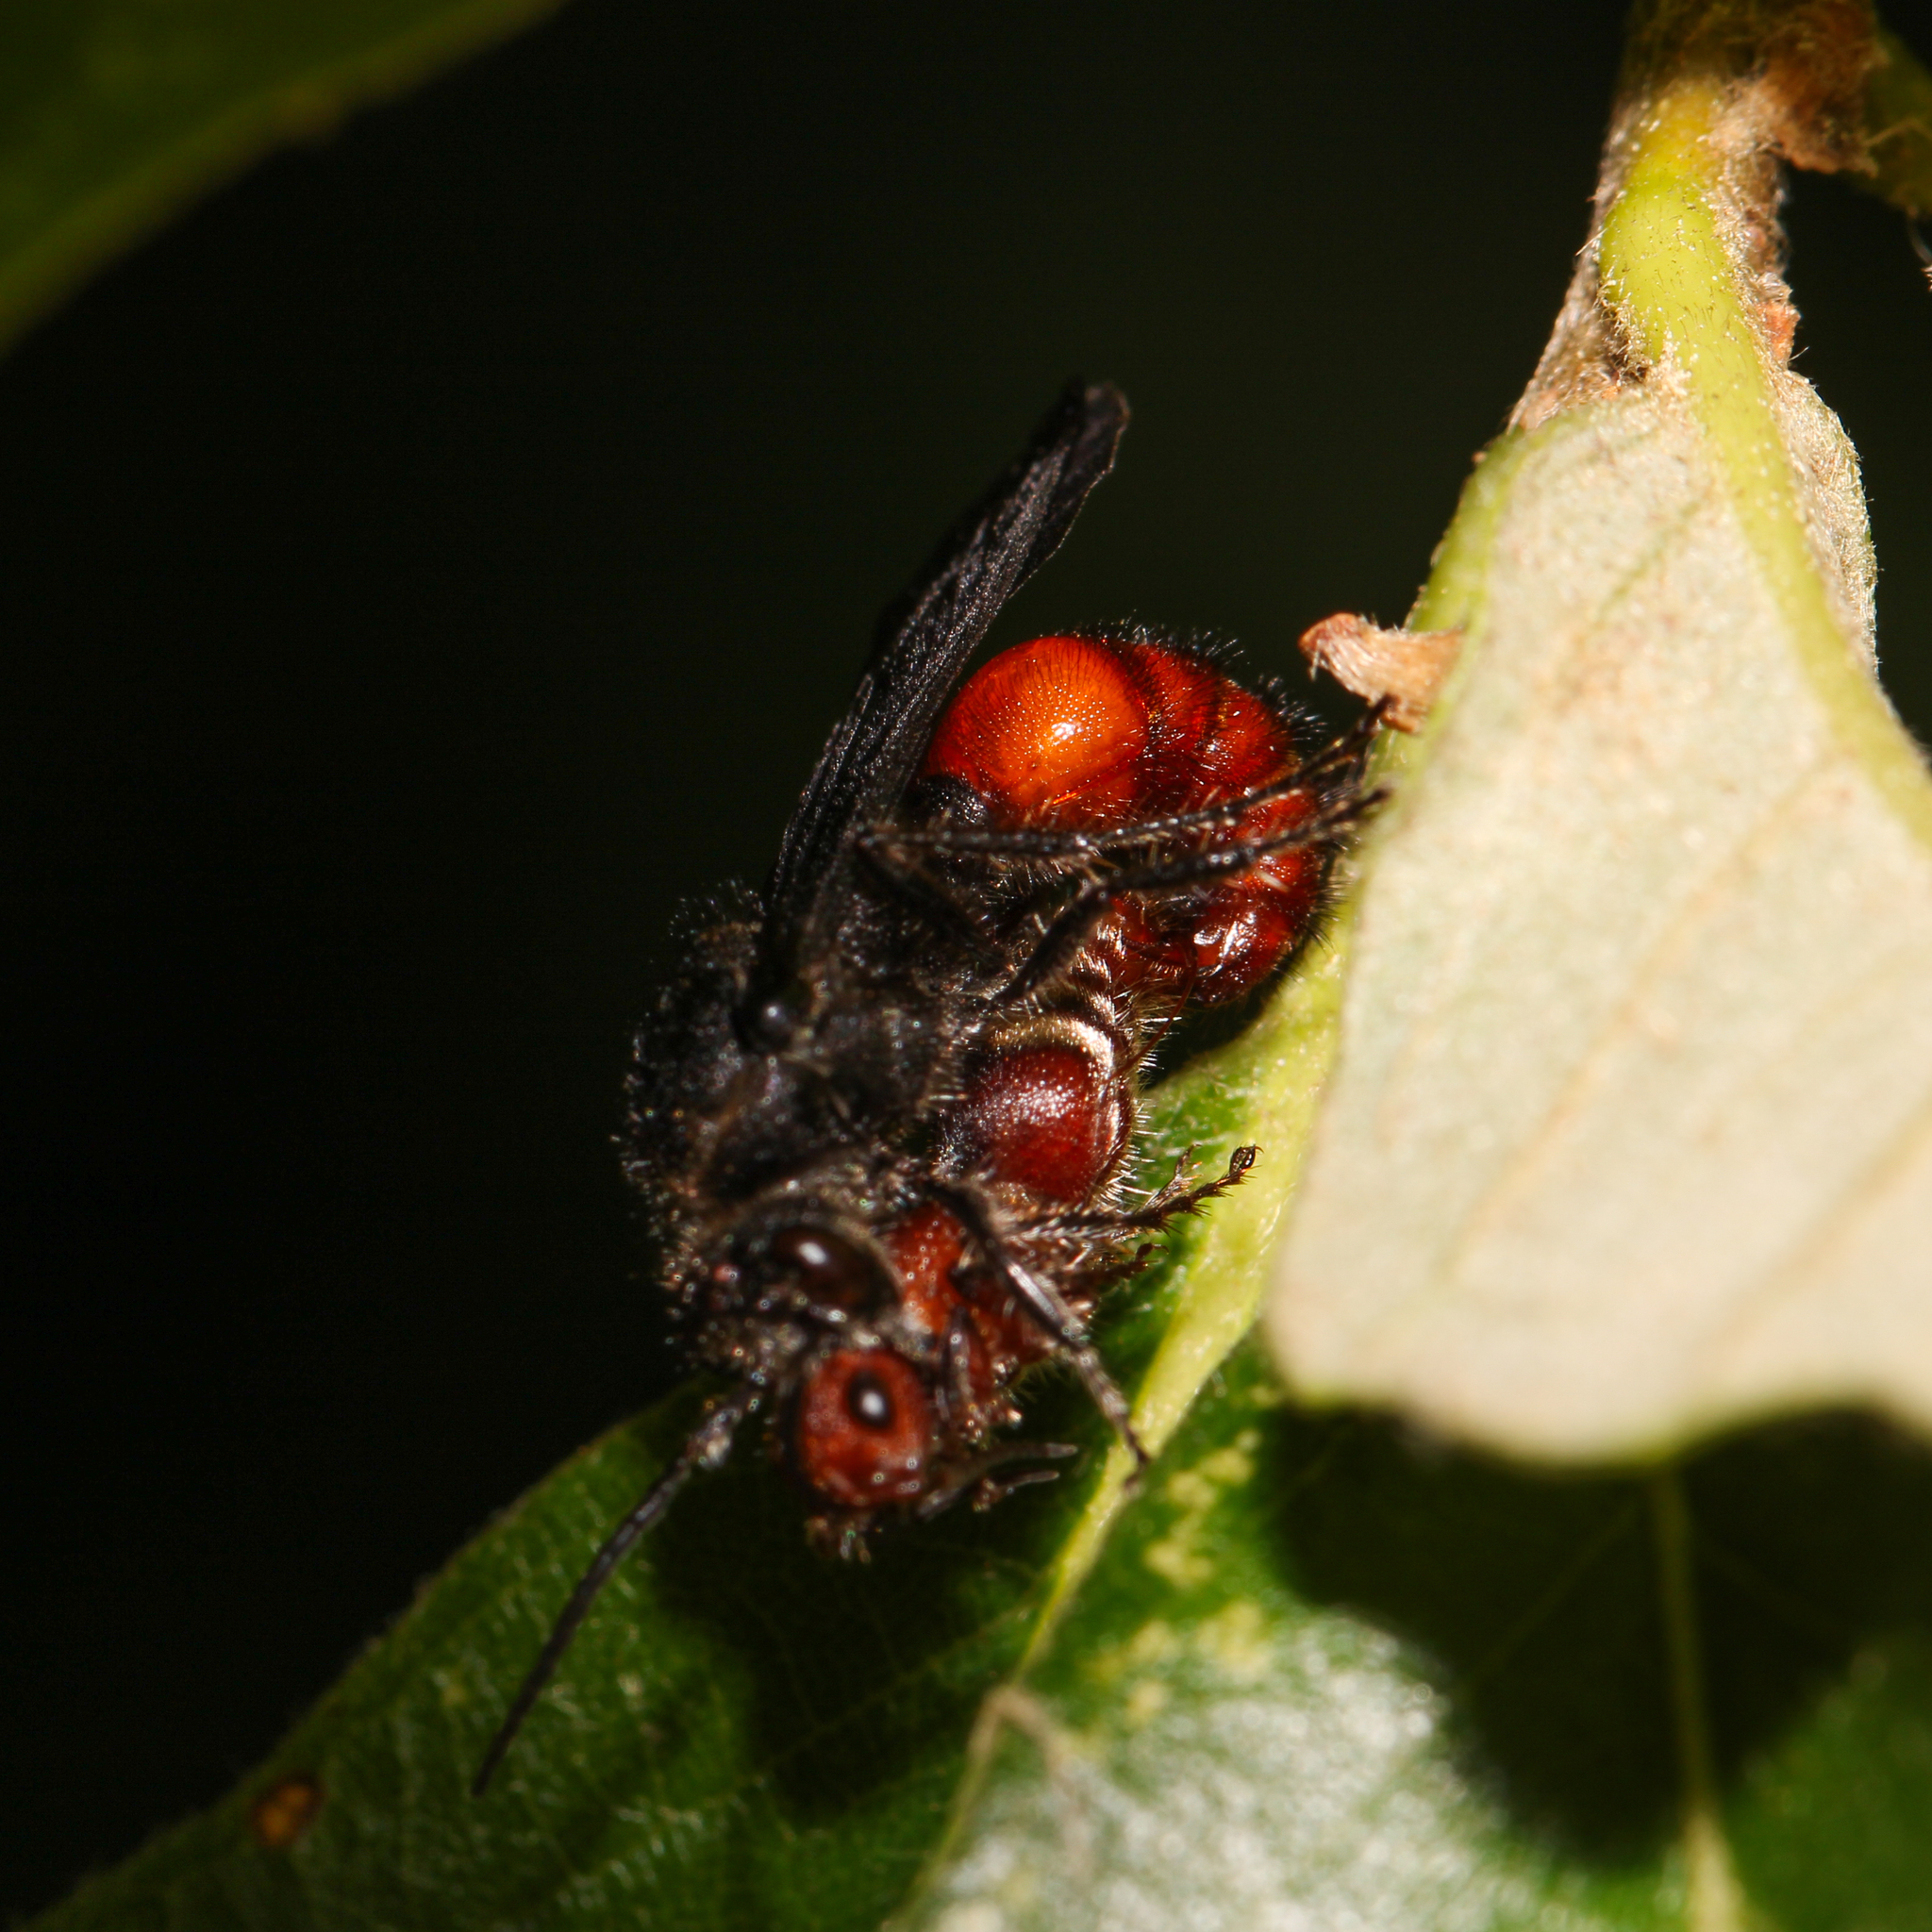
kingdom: Animalia
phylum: Arthropoda
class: Insecta
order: Hymenoptera
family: Mutillidae
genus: Timulla
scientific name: Timulla
